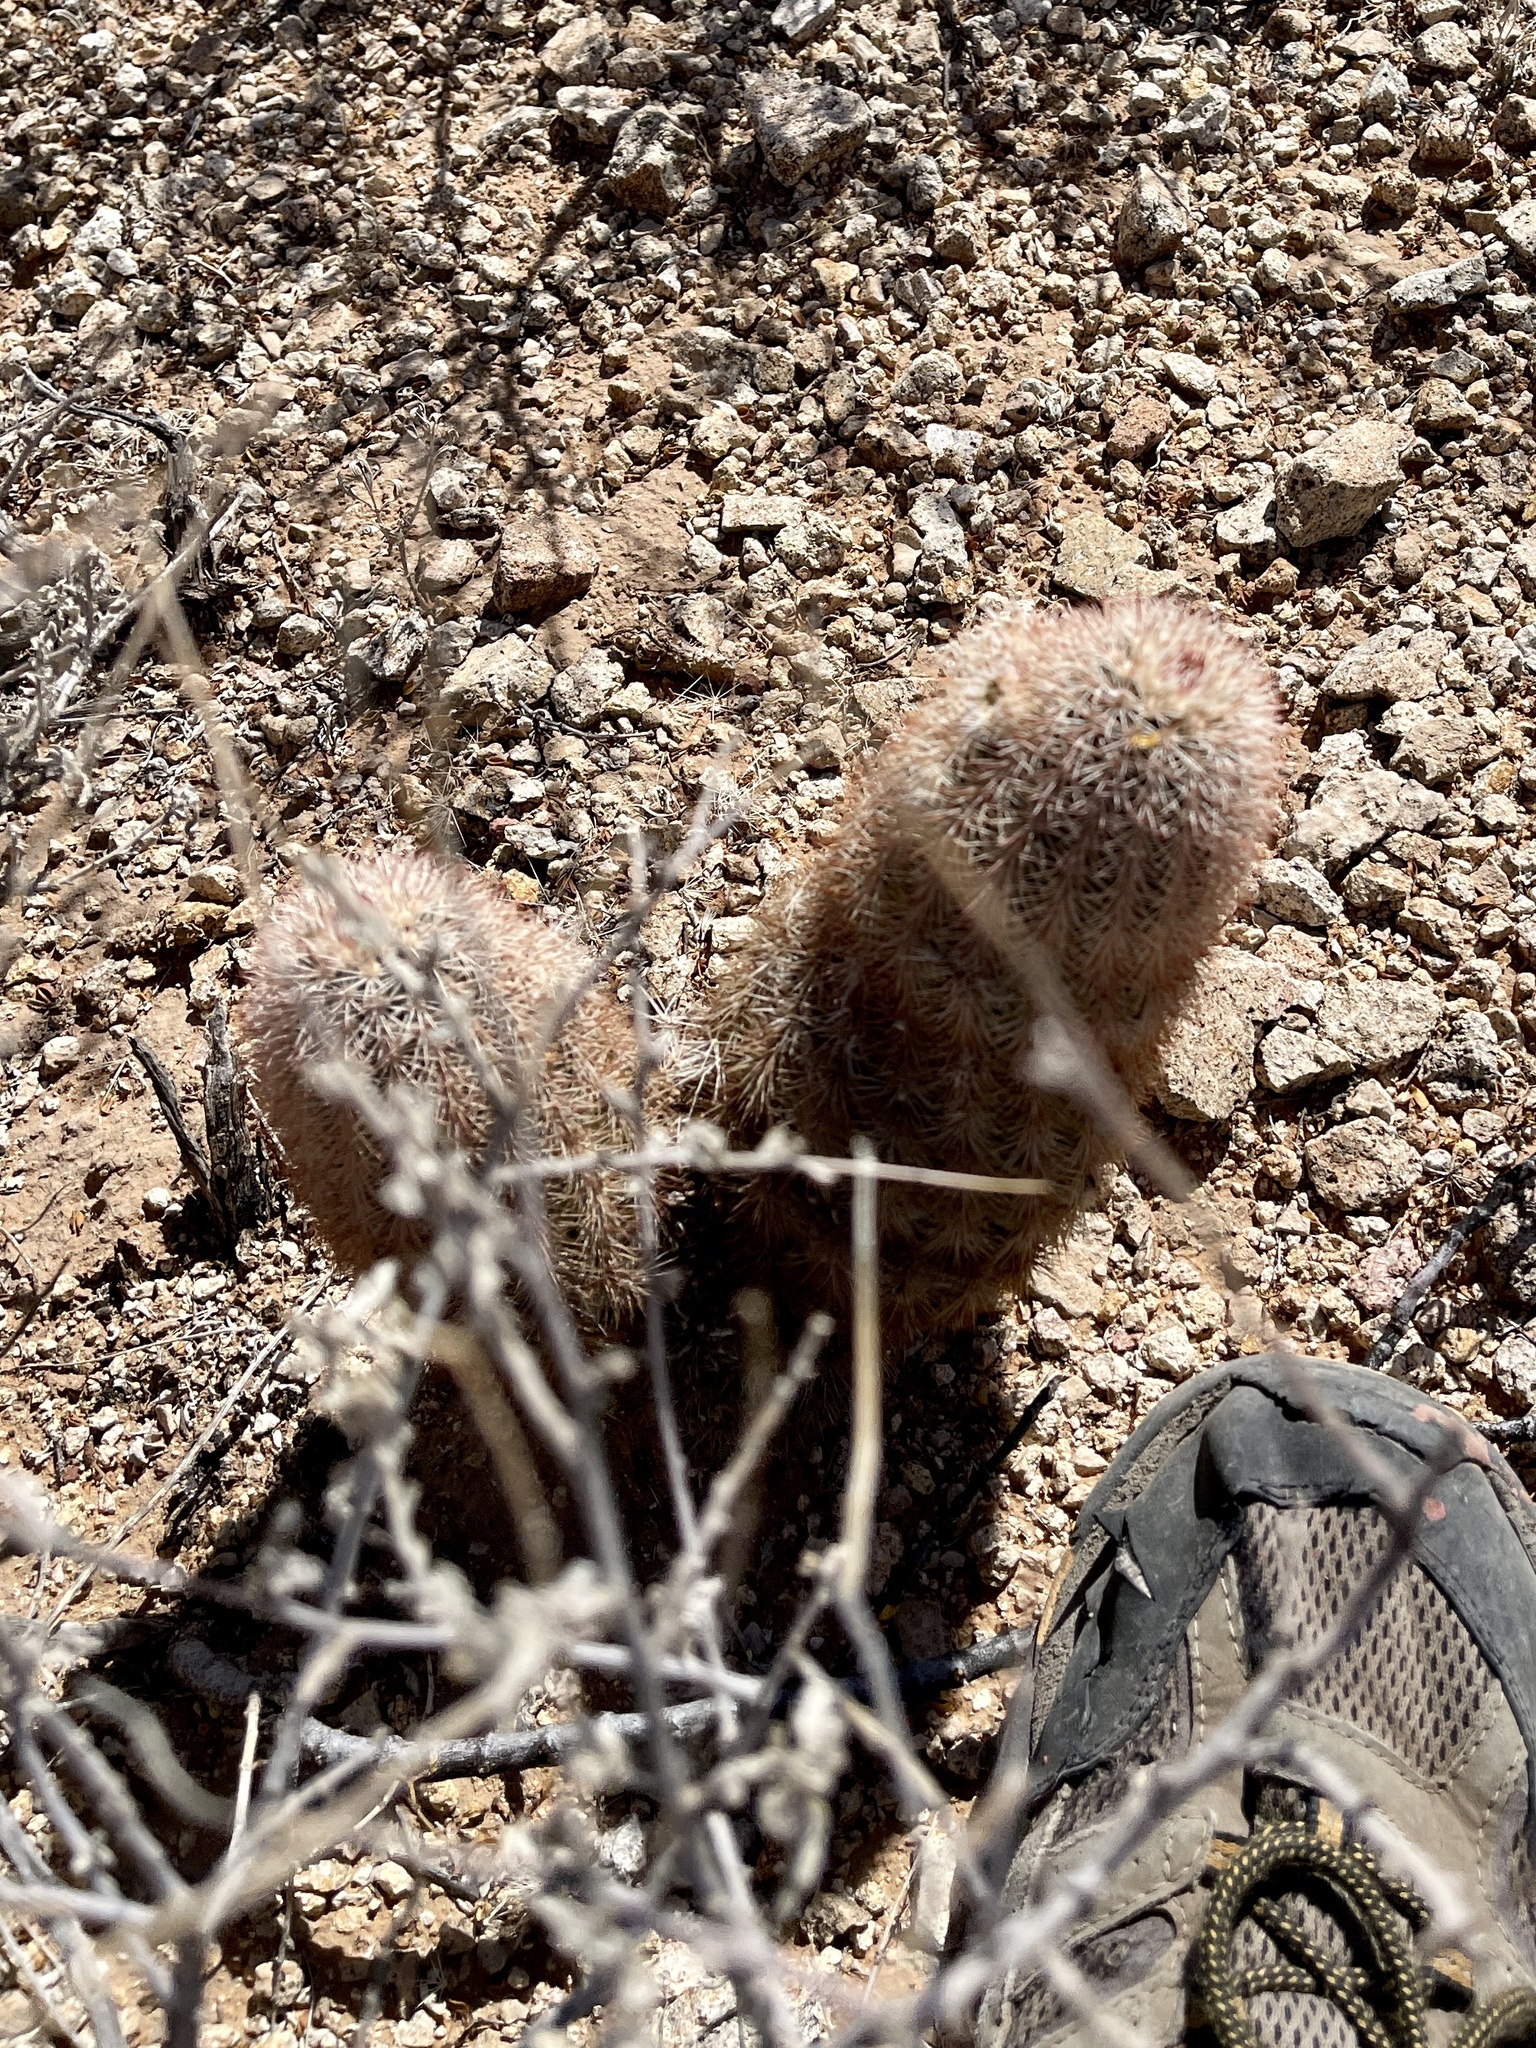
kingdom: Plantae
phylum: Tracheophyta
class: Magnoliopsida
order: Caryophyllales
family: Cactaceae
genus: Echinocereus
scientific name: Echinocereus dasyacanthus
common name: Spiny hedgehog cactus
